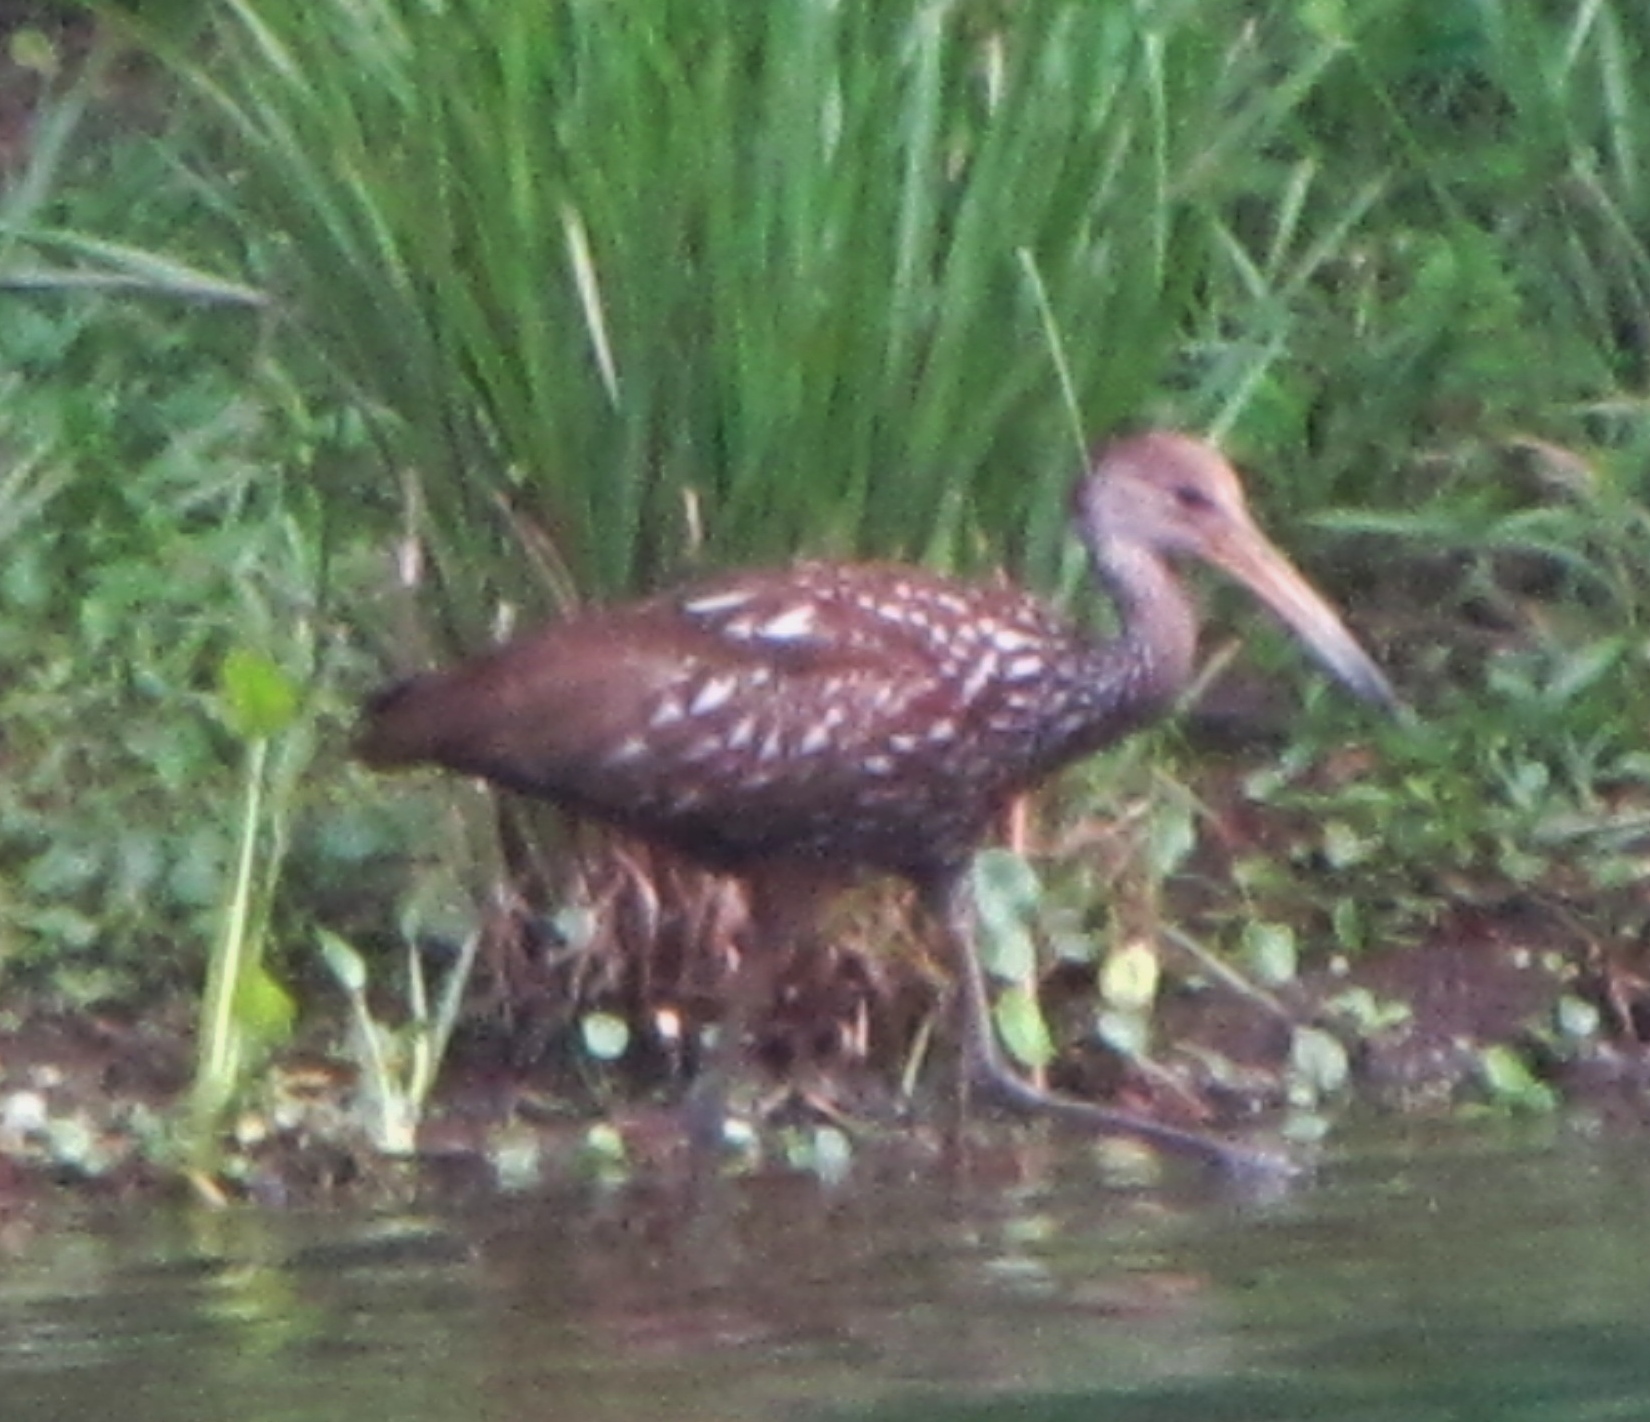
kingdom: Animalia
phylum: Chordata
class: Aves
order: Gruiformes
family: Aramidae
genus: Aramus
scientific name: Aramus guarauna
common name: Limpkin
